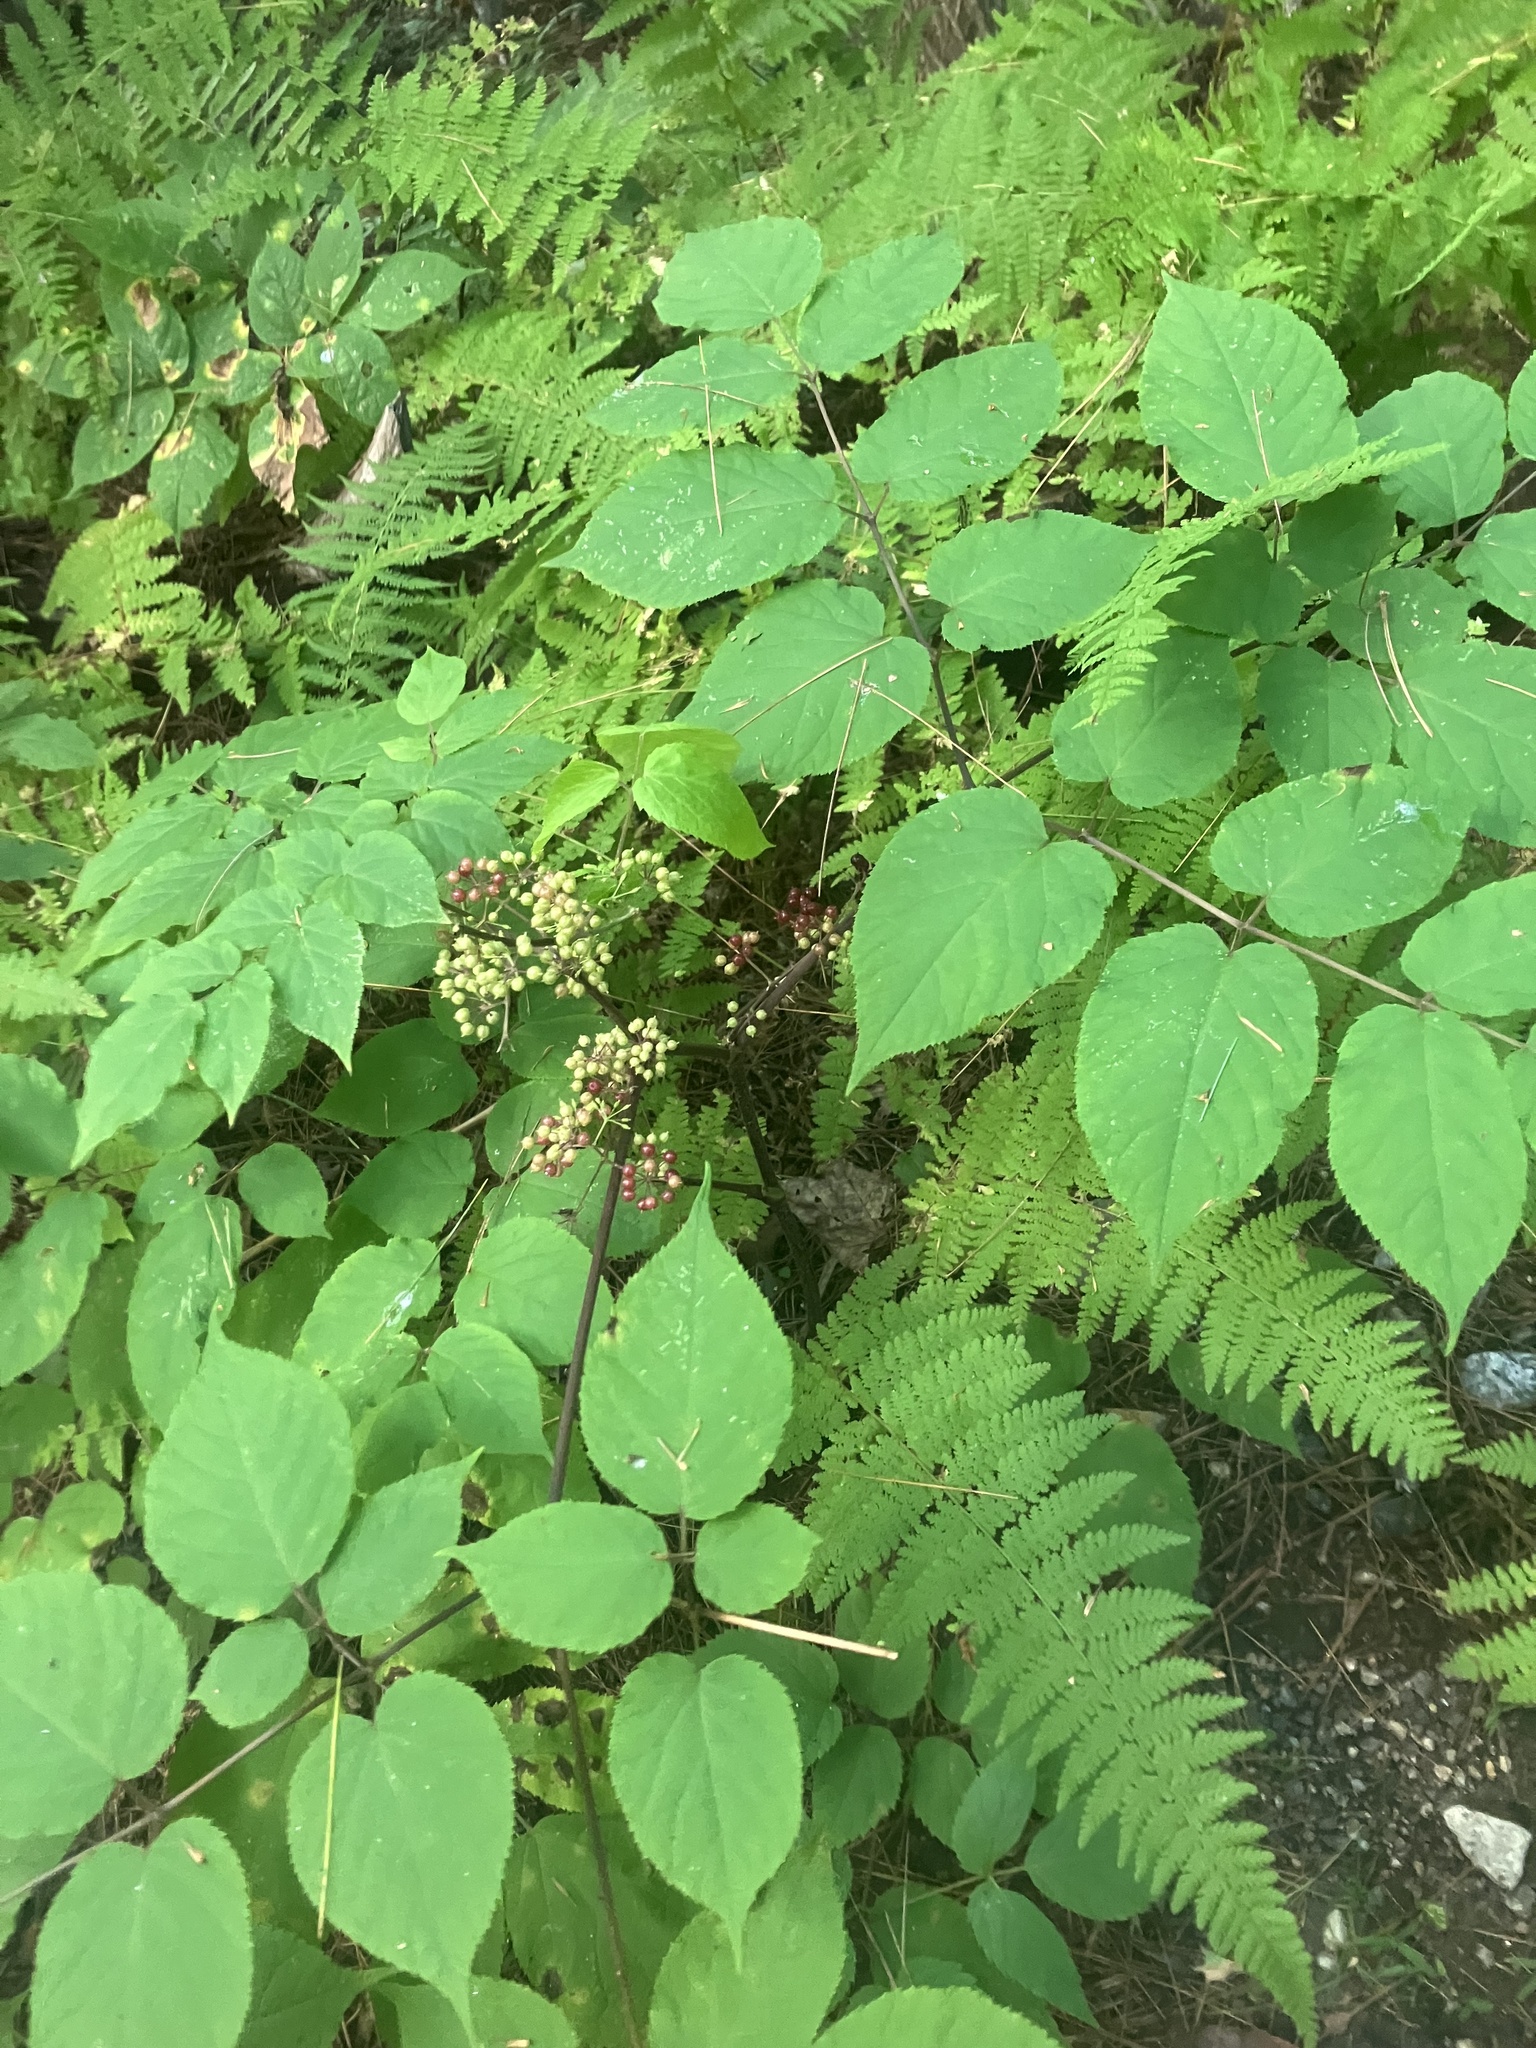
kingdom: Plantae
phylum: Tracheophyta
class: Magnoliopsida
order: Apiales
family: Araliaceae
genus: Aralia
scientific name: Aralia racemosa
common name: American-spikenard
